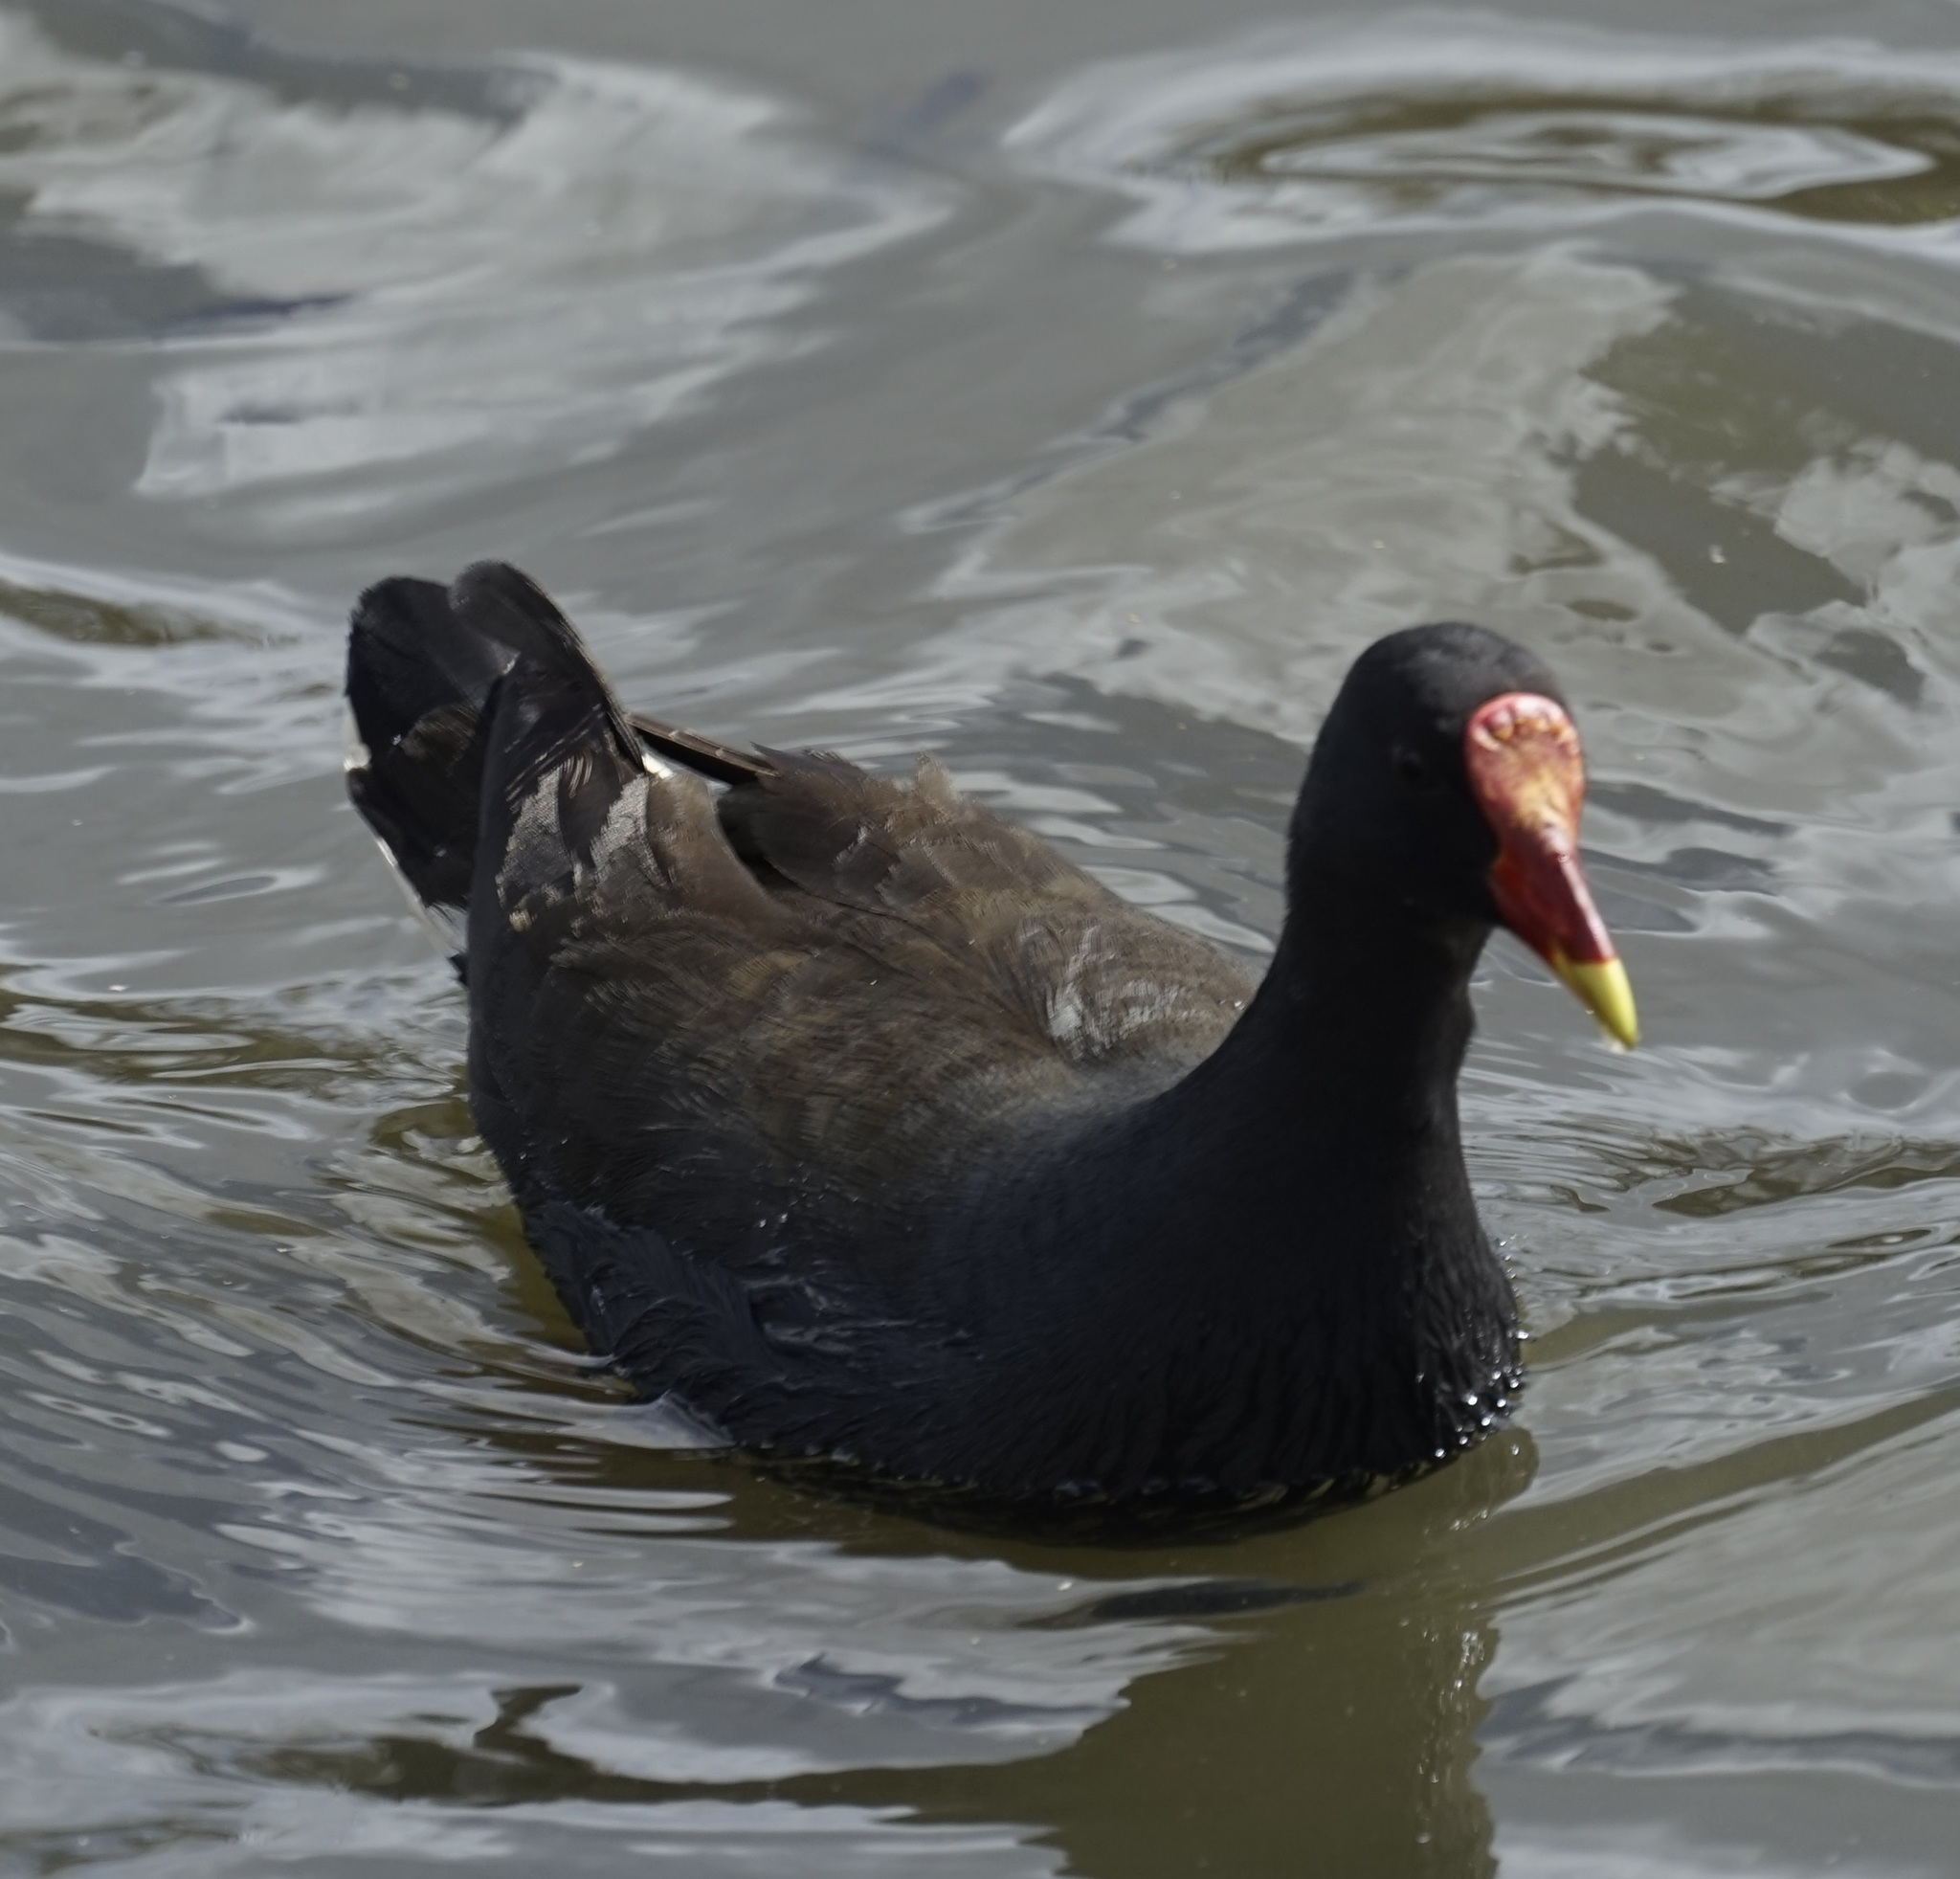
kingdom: Animalia
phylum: Chordata
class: Aves
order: Gruiformes
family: Rallidae
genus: Gallinula
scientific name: Gallinula tenebrosa
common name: Dusky moorhen
